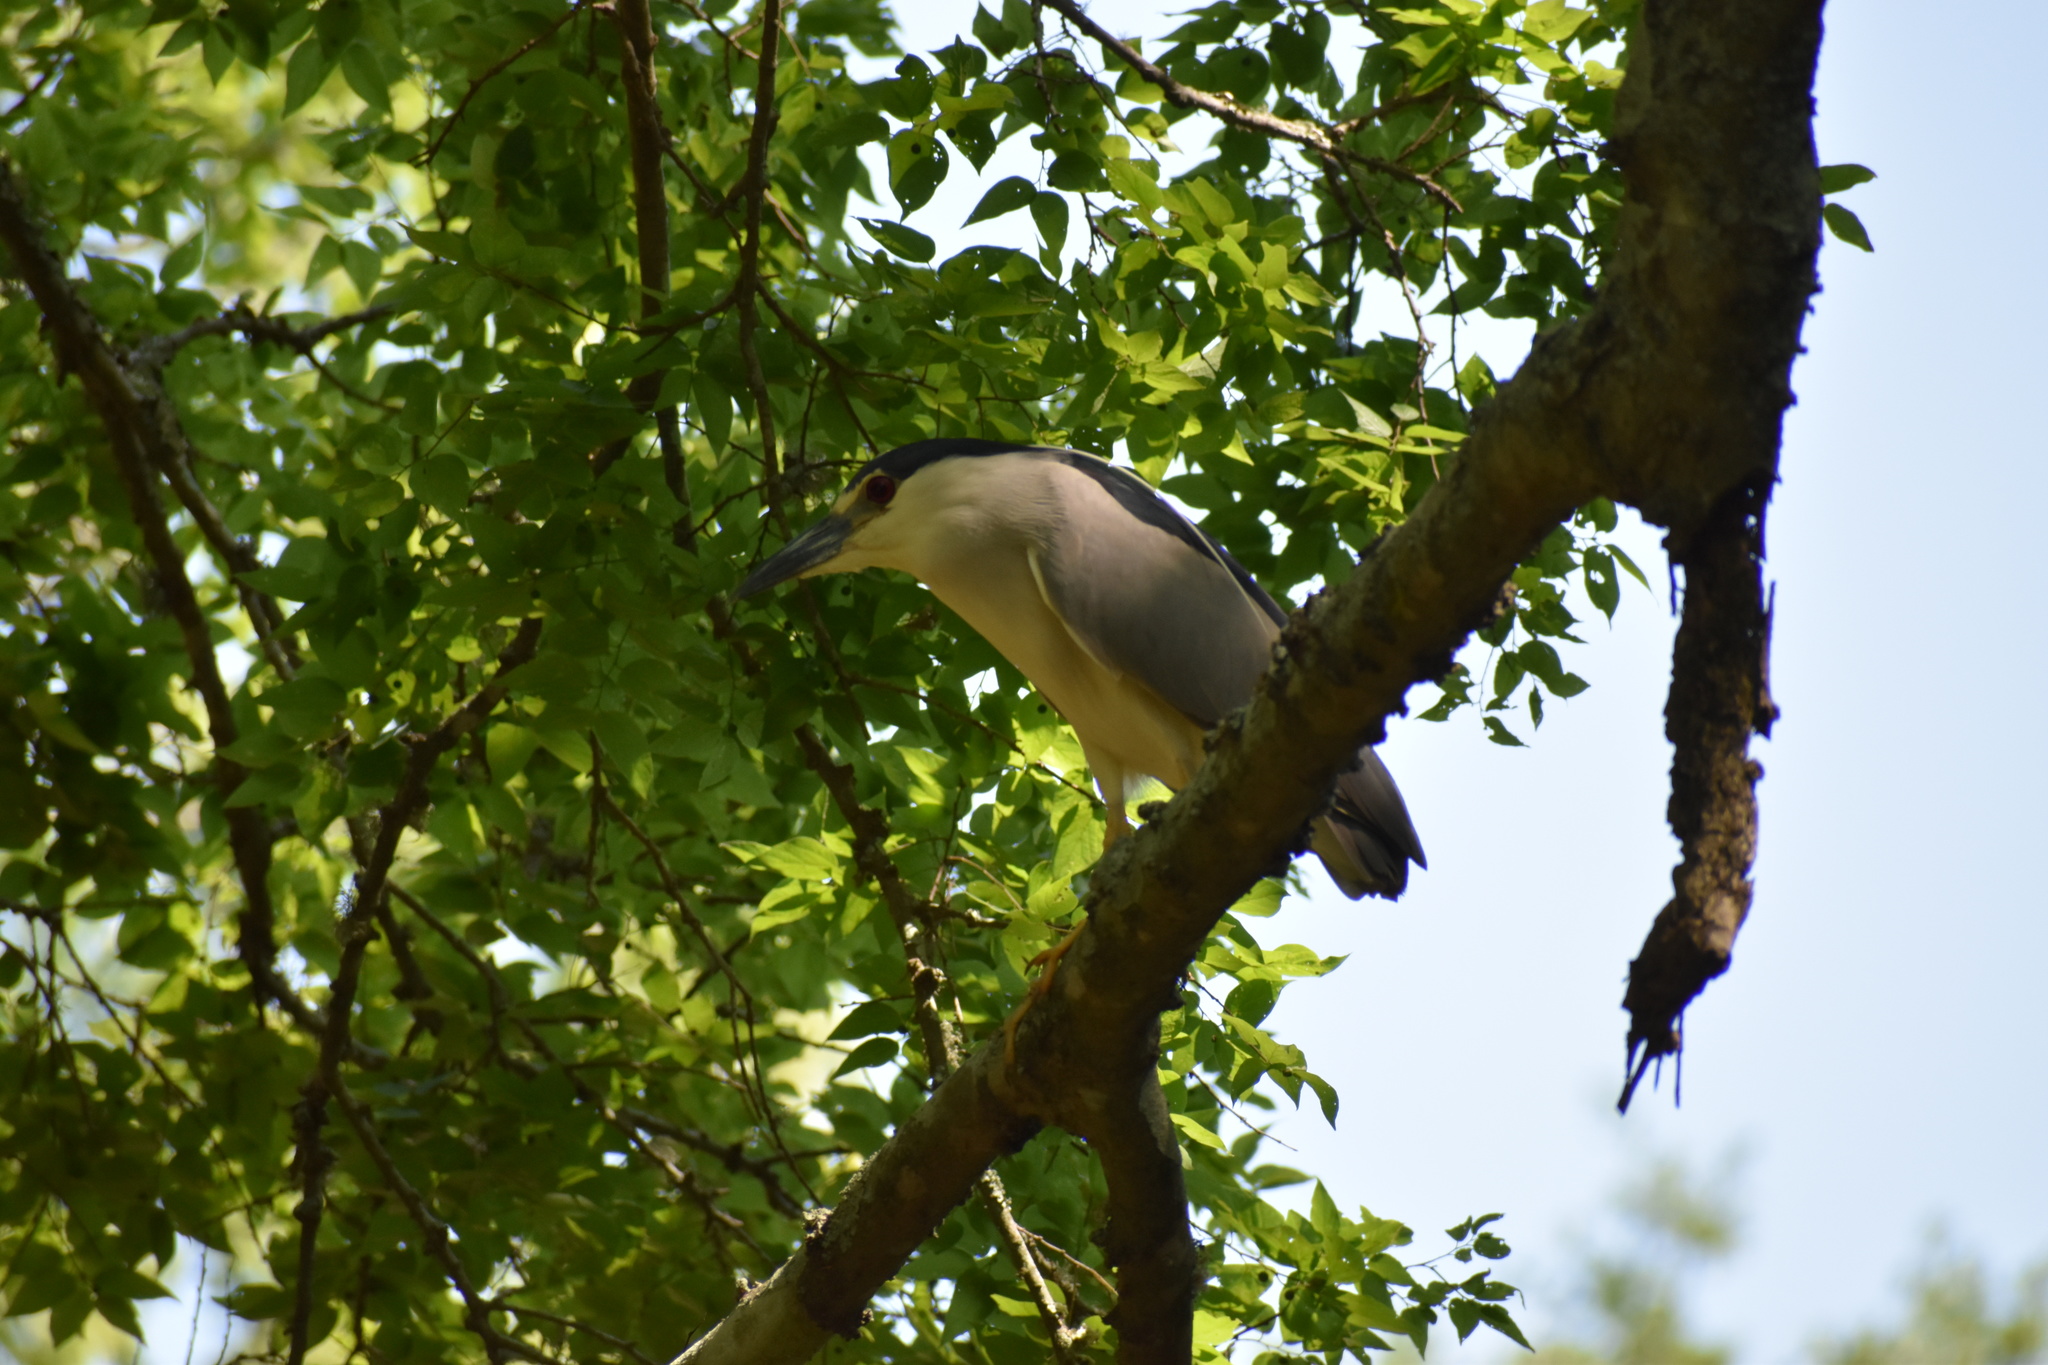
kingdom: Animalia
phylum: Chordata
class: Aves
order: Pelecaniformes
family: Ardeidae
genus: Nycticorax
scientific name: Nycticorax nycticorax
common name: Black-crowned night heron
